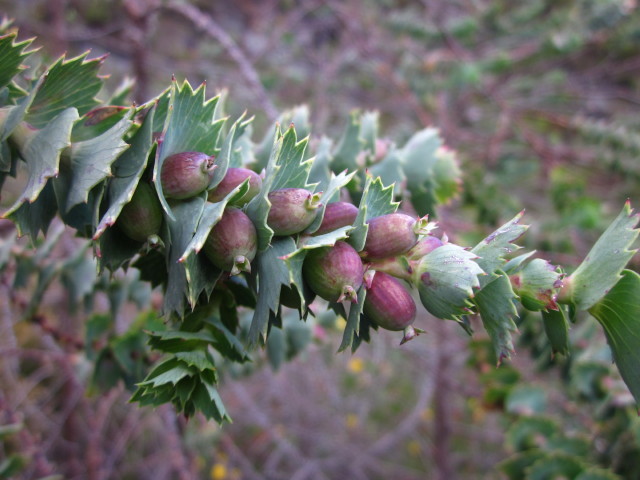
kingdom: Plantae
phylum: Tracheophyta
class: Magnoliopsida
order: Rosales
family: Rosaceae
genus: Cliffortia
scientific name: Cliffortia reniformis
